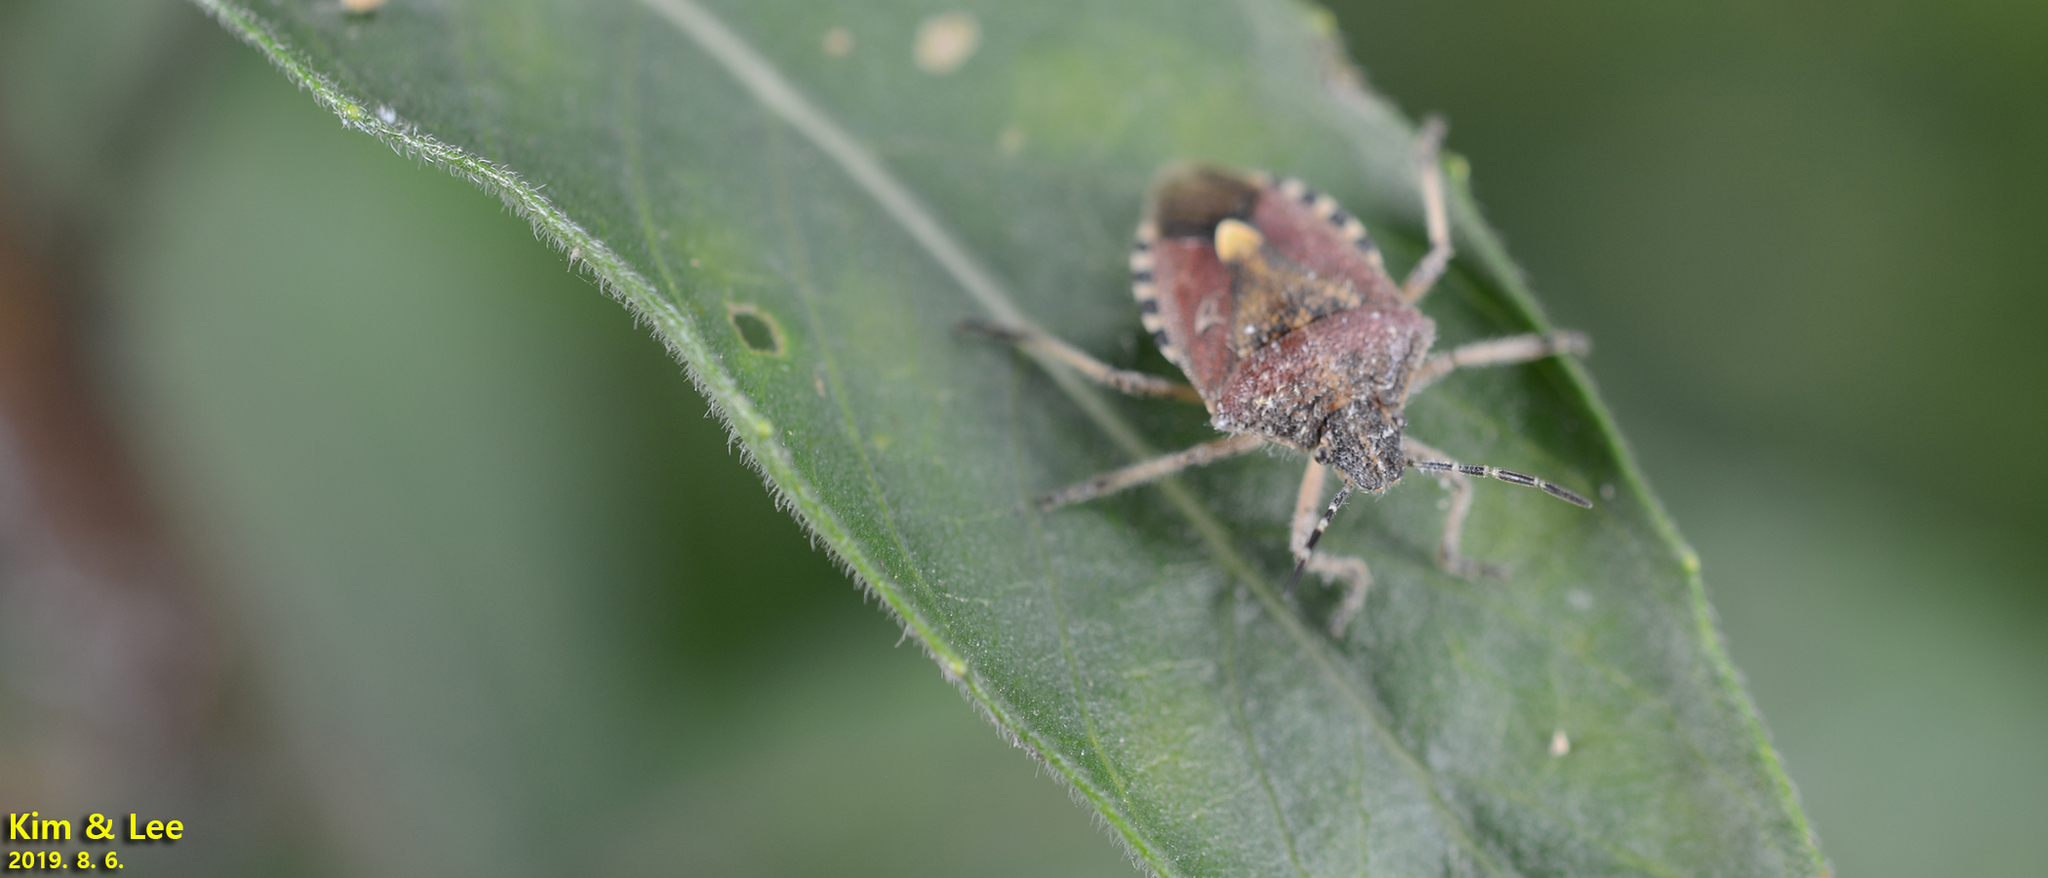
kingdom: Animalia
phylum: Arthropoda
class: Insecta
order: Hemiptera
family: Pentatomidae
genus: Dolycoris
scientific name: Dolycoris baccarum
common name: Sloe bug
